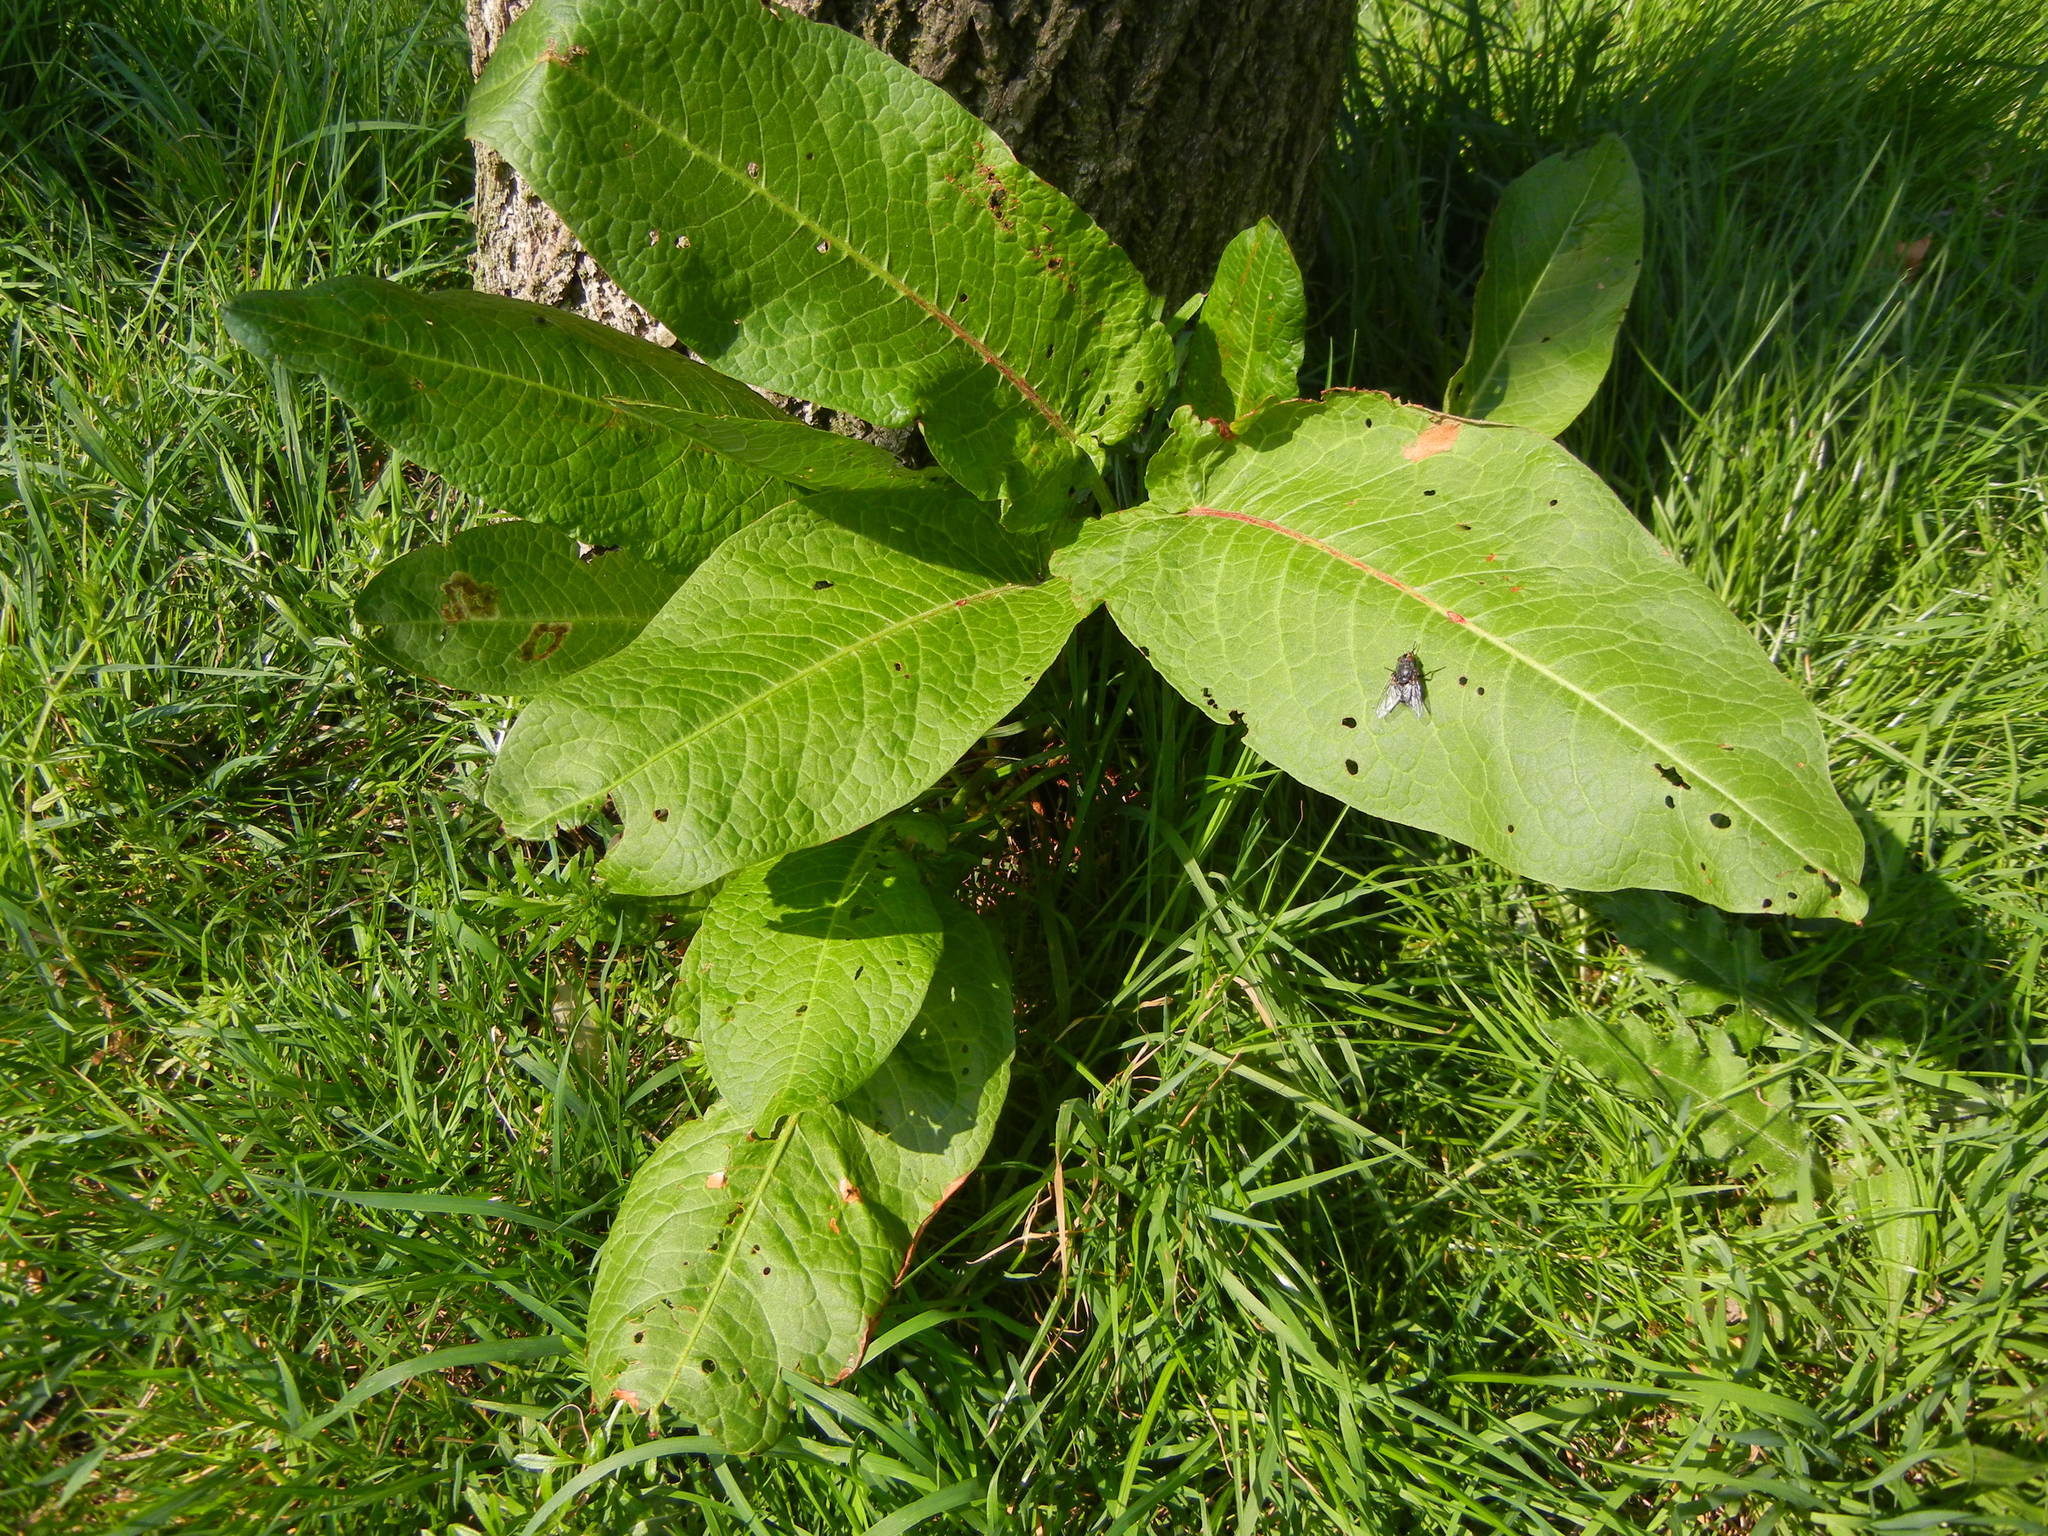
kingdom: Plantae
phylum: Tracheophyta
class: Magnoliopsida
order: Caryophyllales
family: Polygonaceae
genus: Rumex
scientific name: Rumex obtusifolius
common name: Bitter dock
